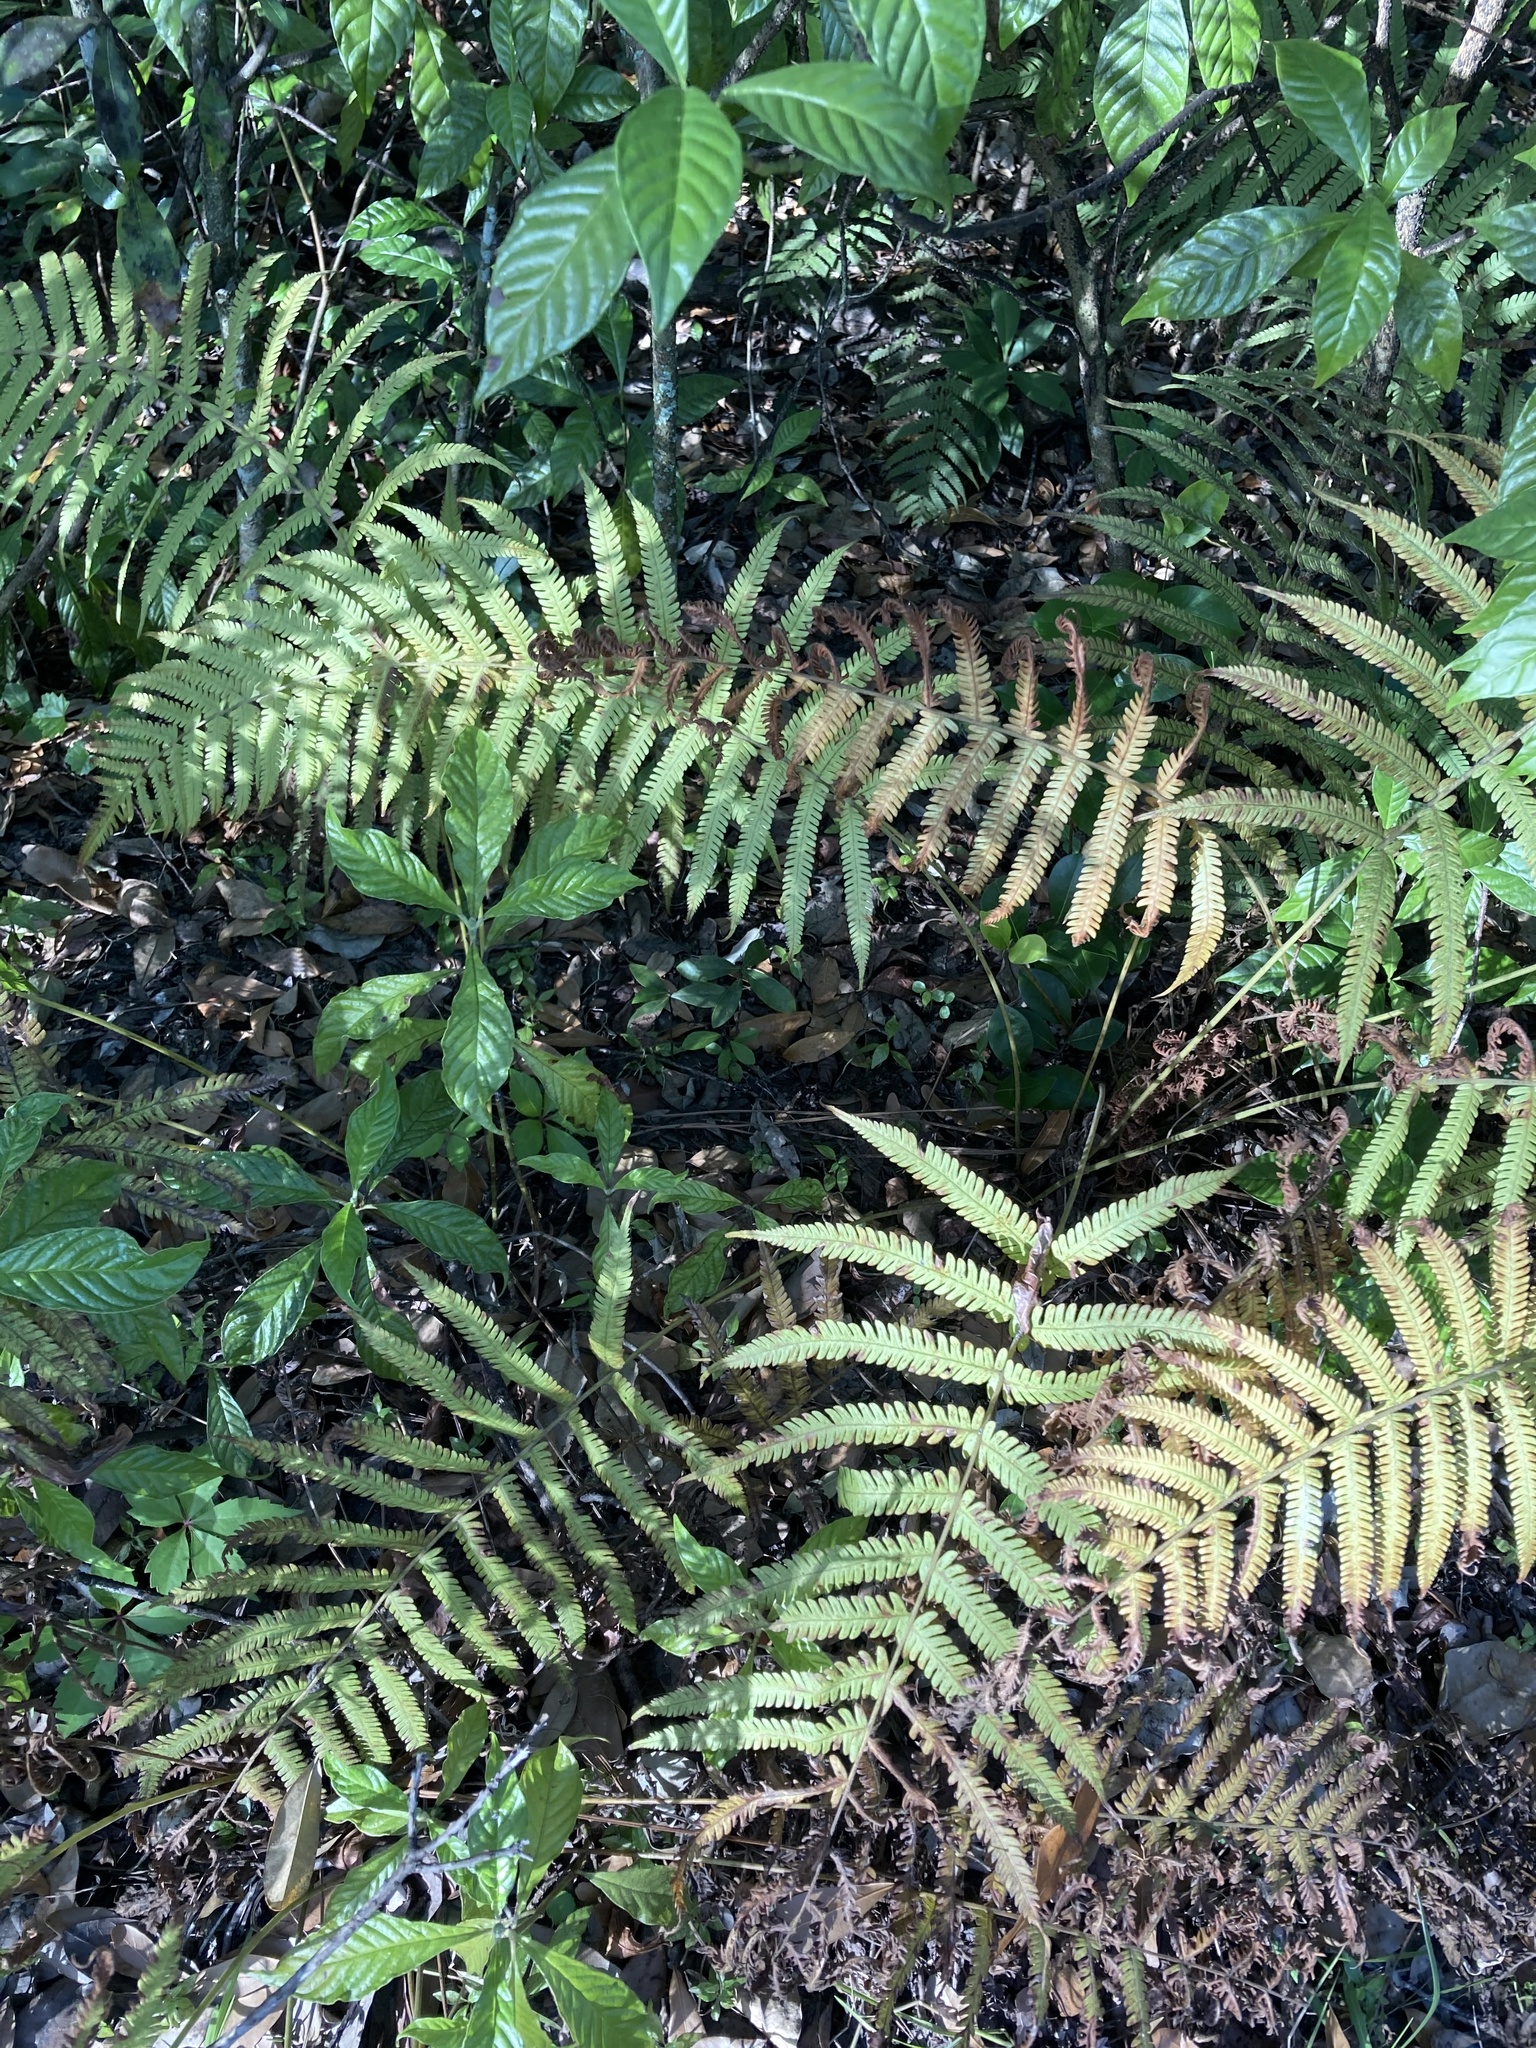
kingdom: Plantae
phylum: Tracheophyta
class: Polypodiopsida
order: Polypodiales
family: Thelypteridaceae
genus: Pelazoneuron
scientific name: Pelazoneuron kunthii
